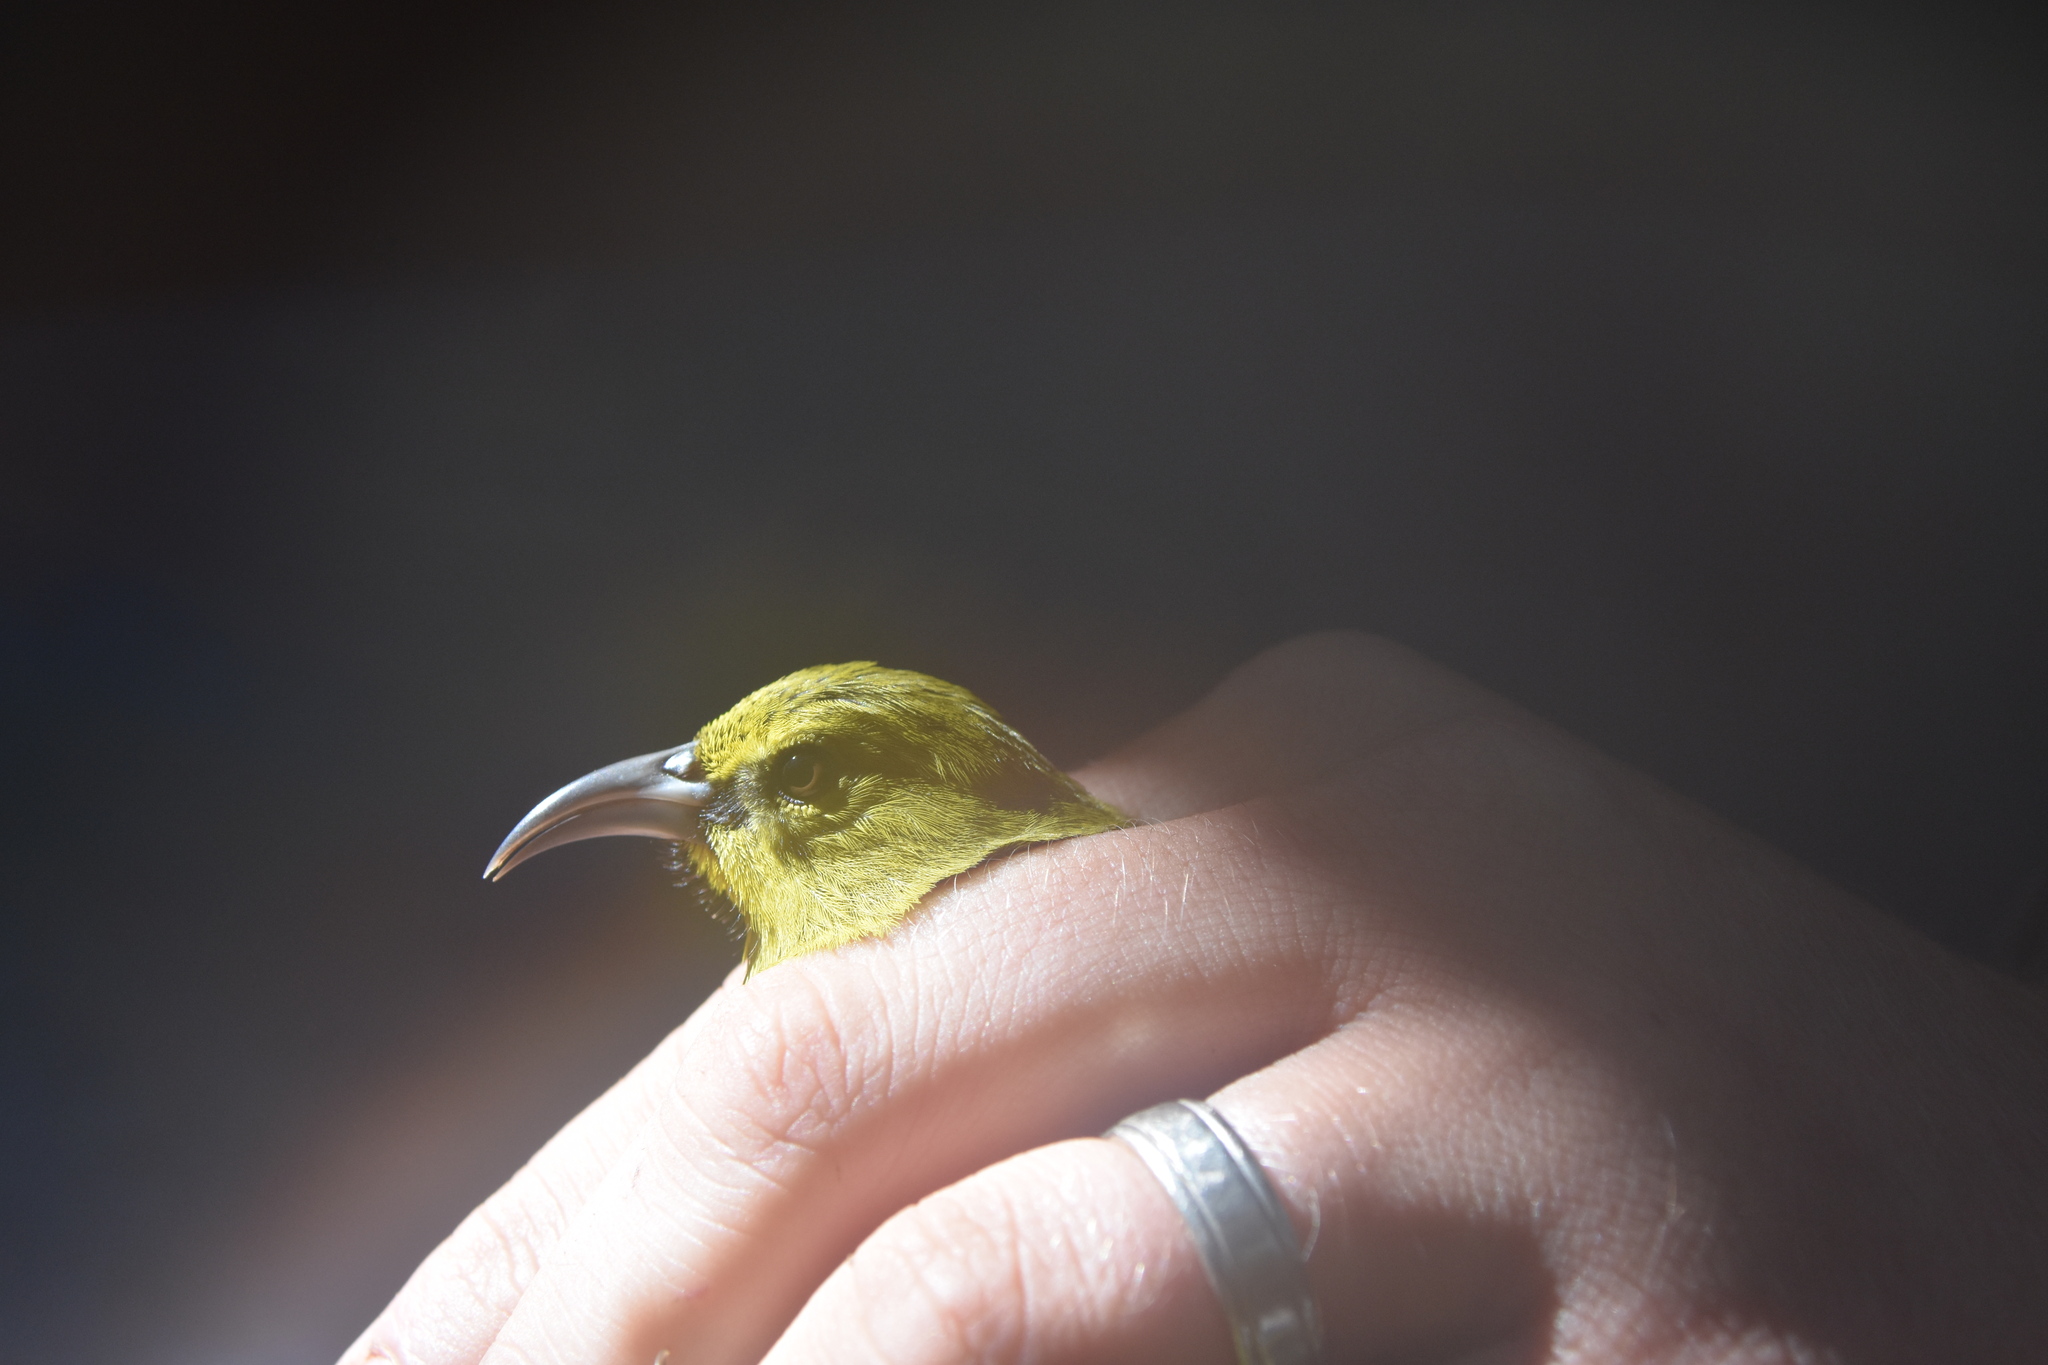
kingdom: Animalia
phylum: Chordata
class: Aves
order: Passeriformes
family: Fringillidae
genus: Chlorodrepanis
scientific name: Chlorodrepanis stejnegeri
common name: Kauai amakihi
